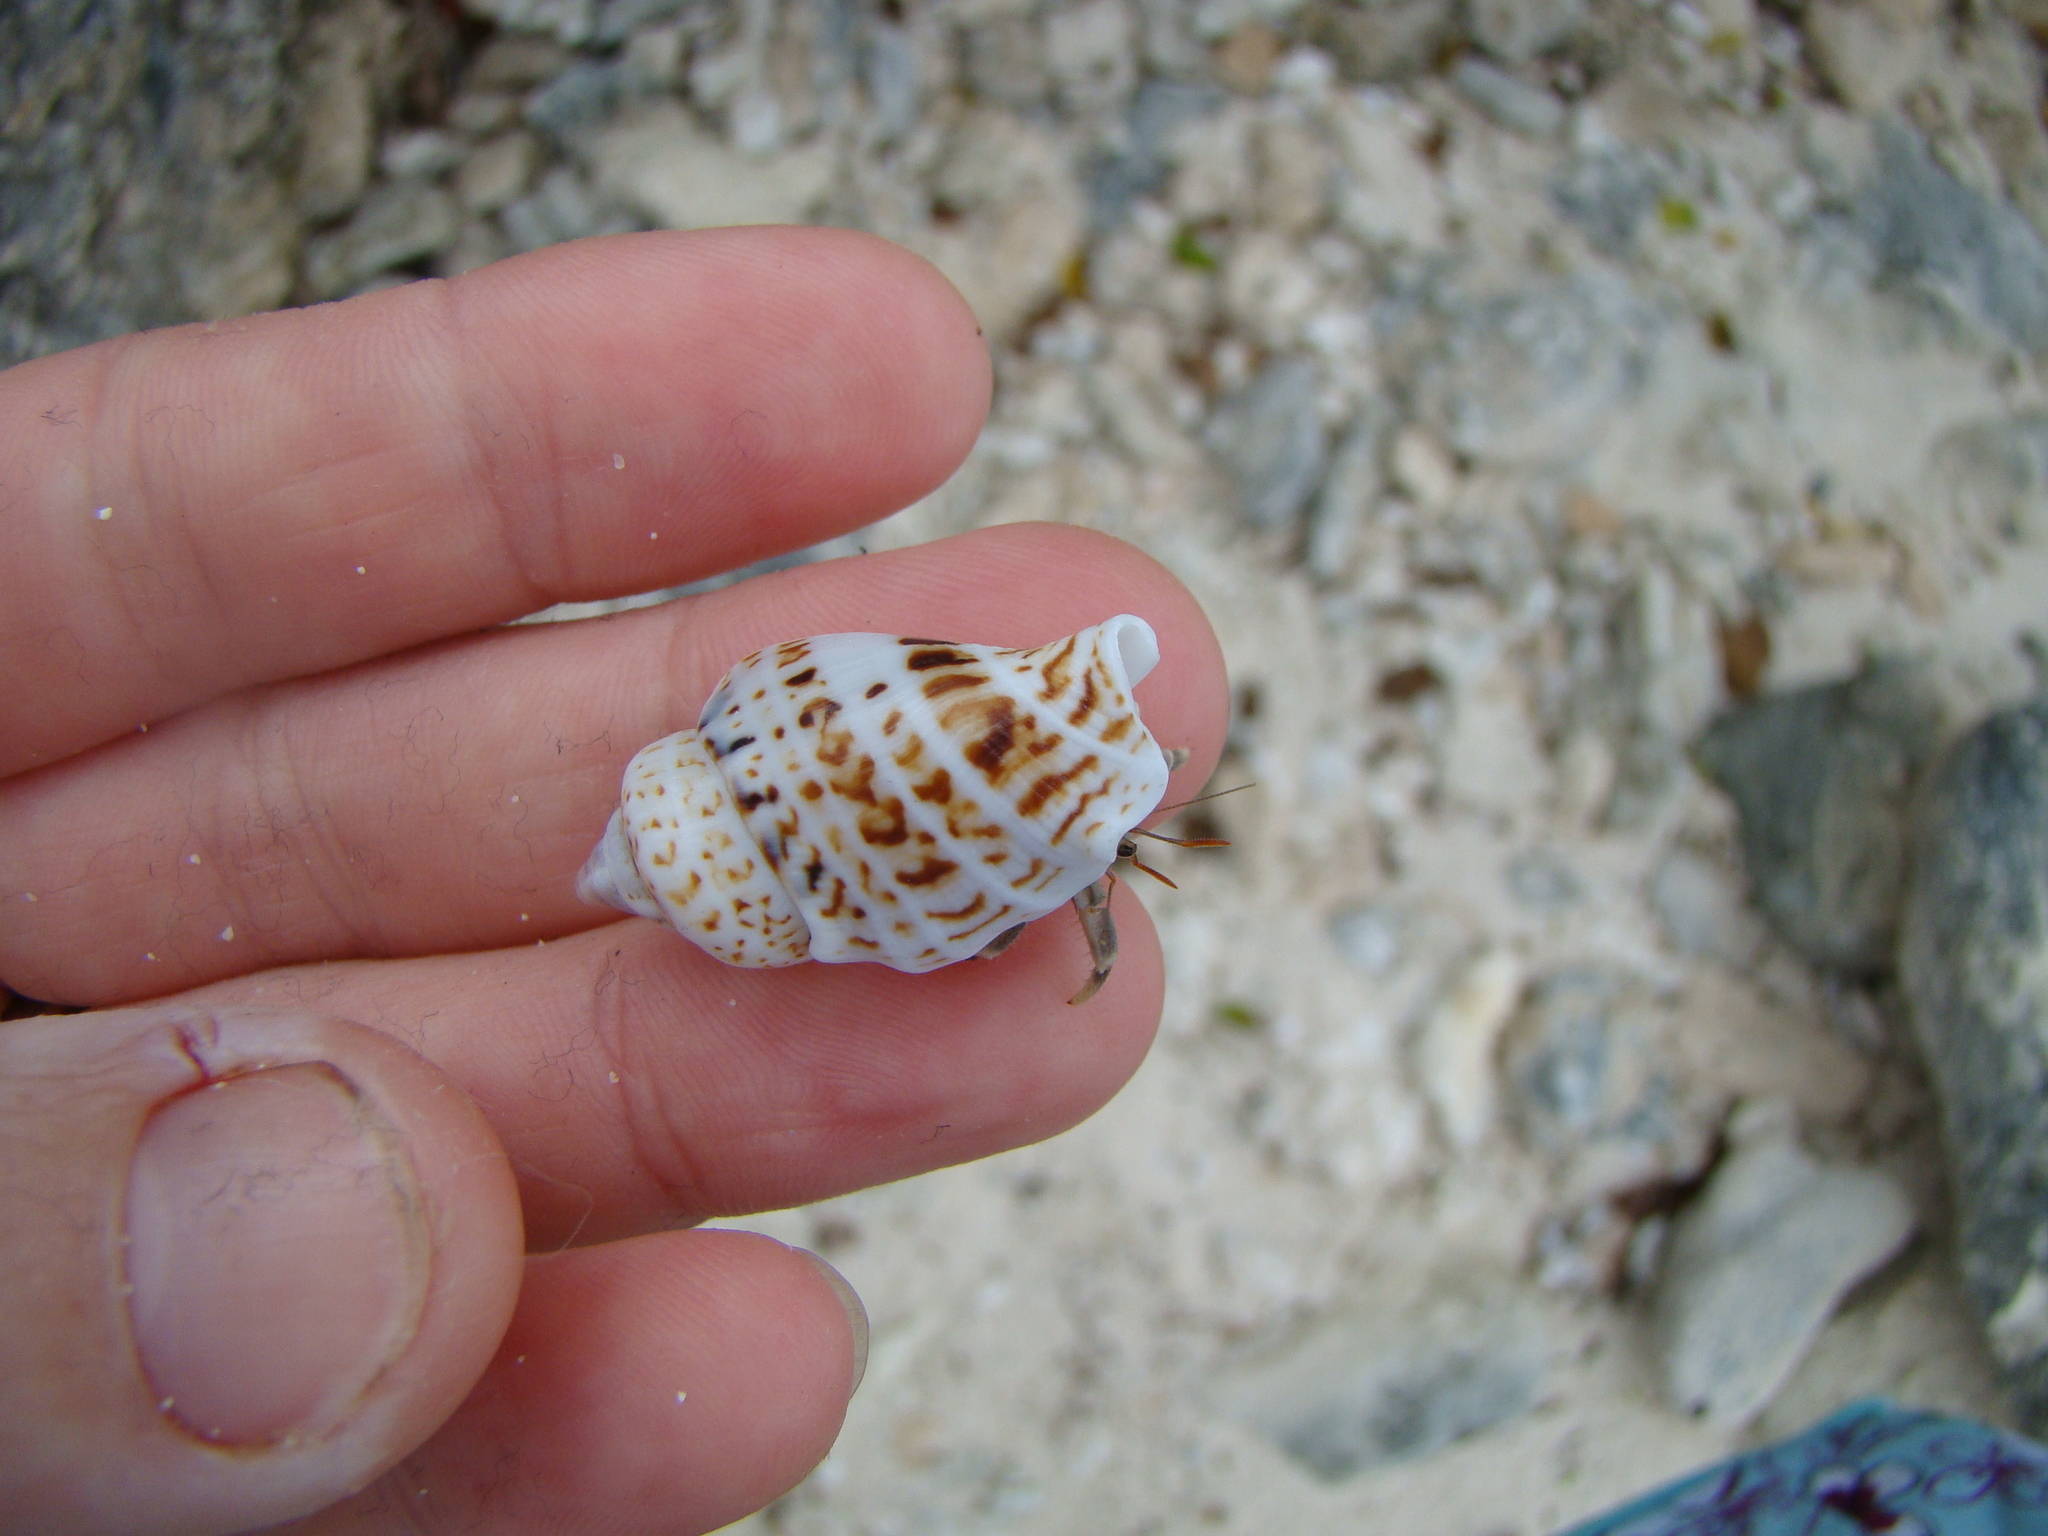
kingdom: Animalia
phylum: Mollusca
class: Gastropoda
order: Littorinimorpha
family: Strombidae
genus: Gibberulus
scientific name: Gibberulus gibberulus
